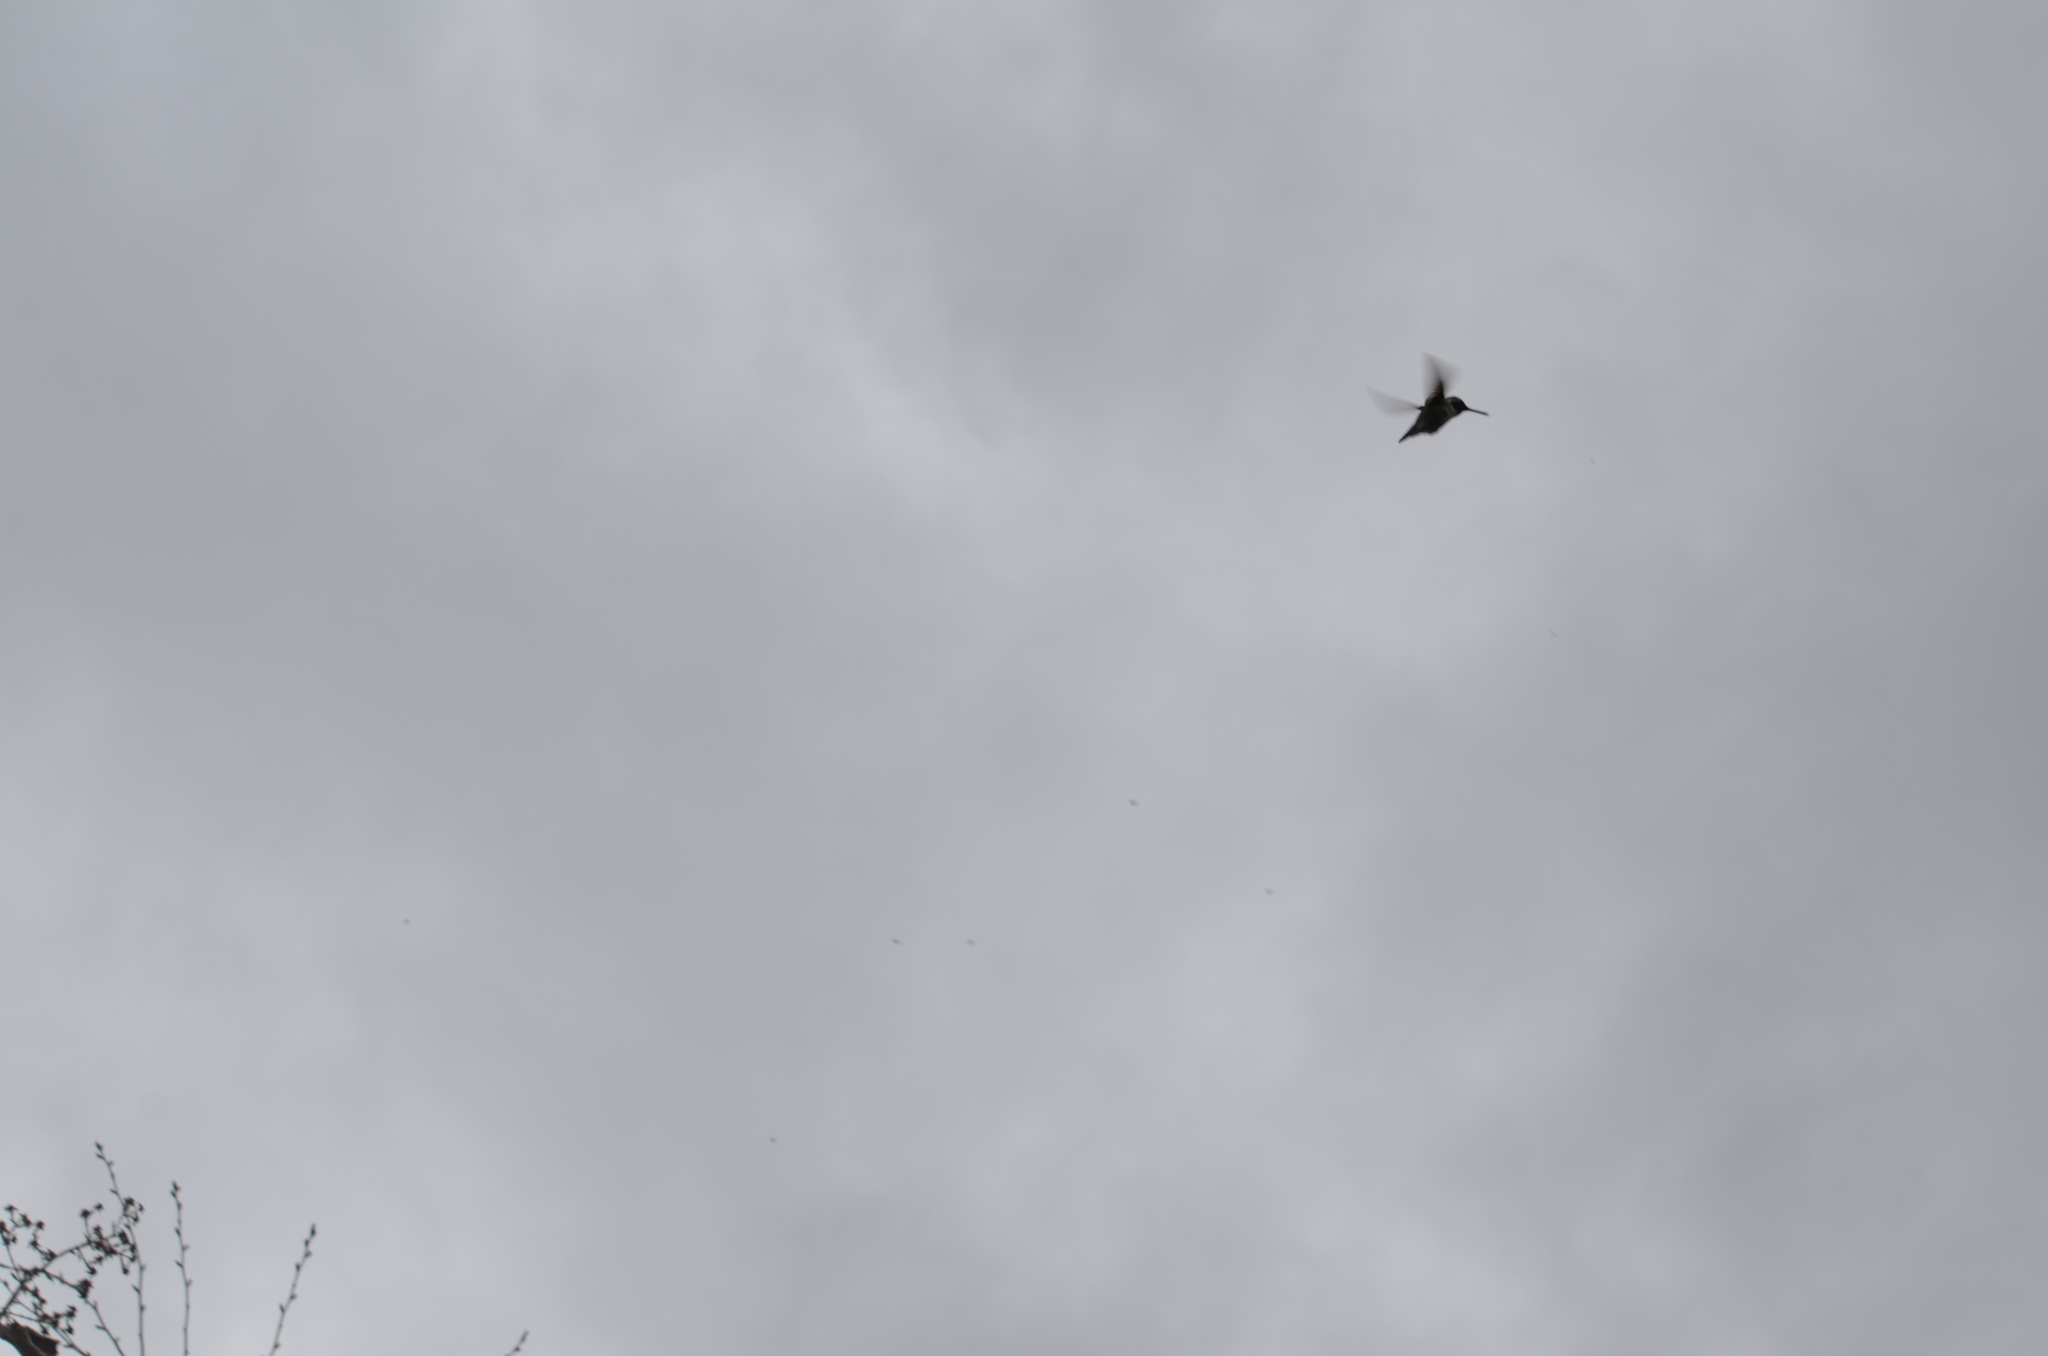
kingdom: Animalia
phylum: Chordata
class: Aves
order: Apodiformes
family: Trochilidae
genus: Calypte
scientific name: Calypte anna
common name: Anna's hummingbird
